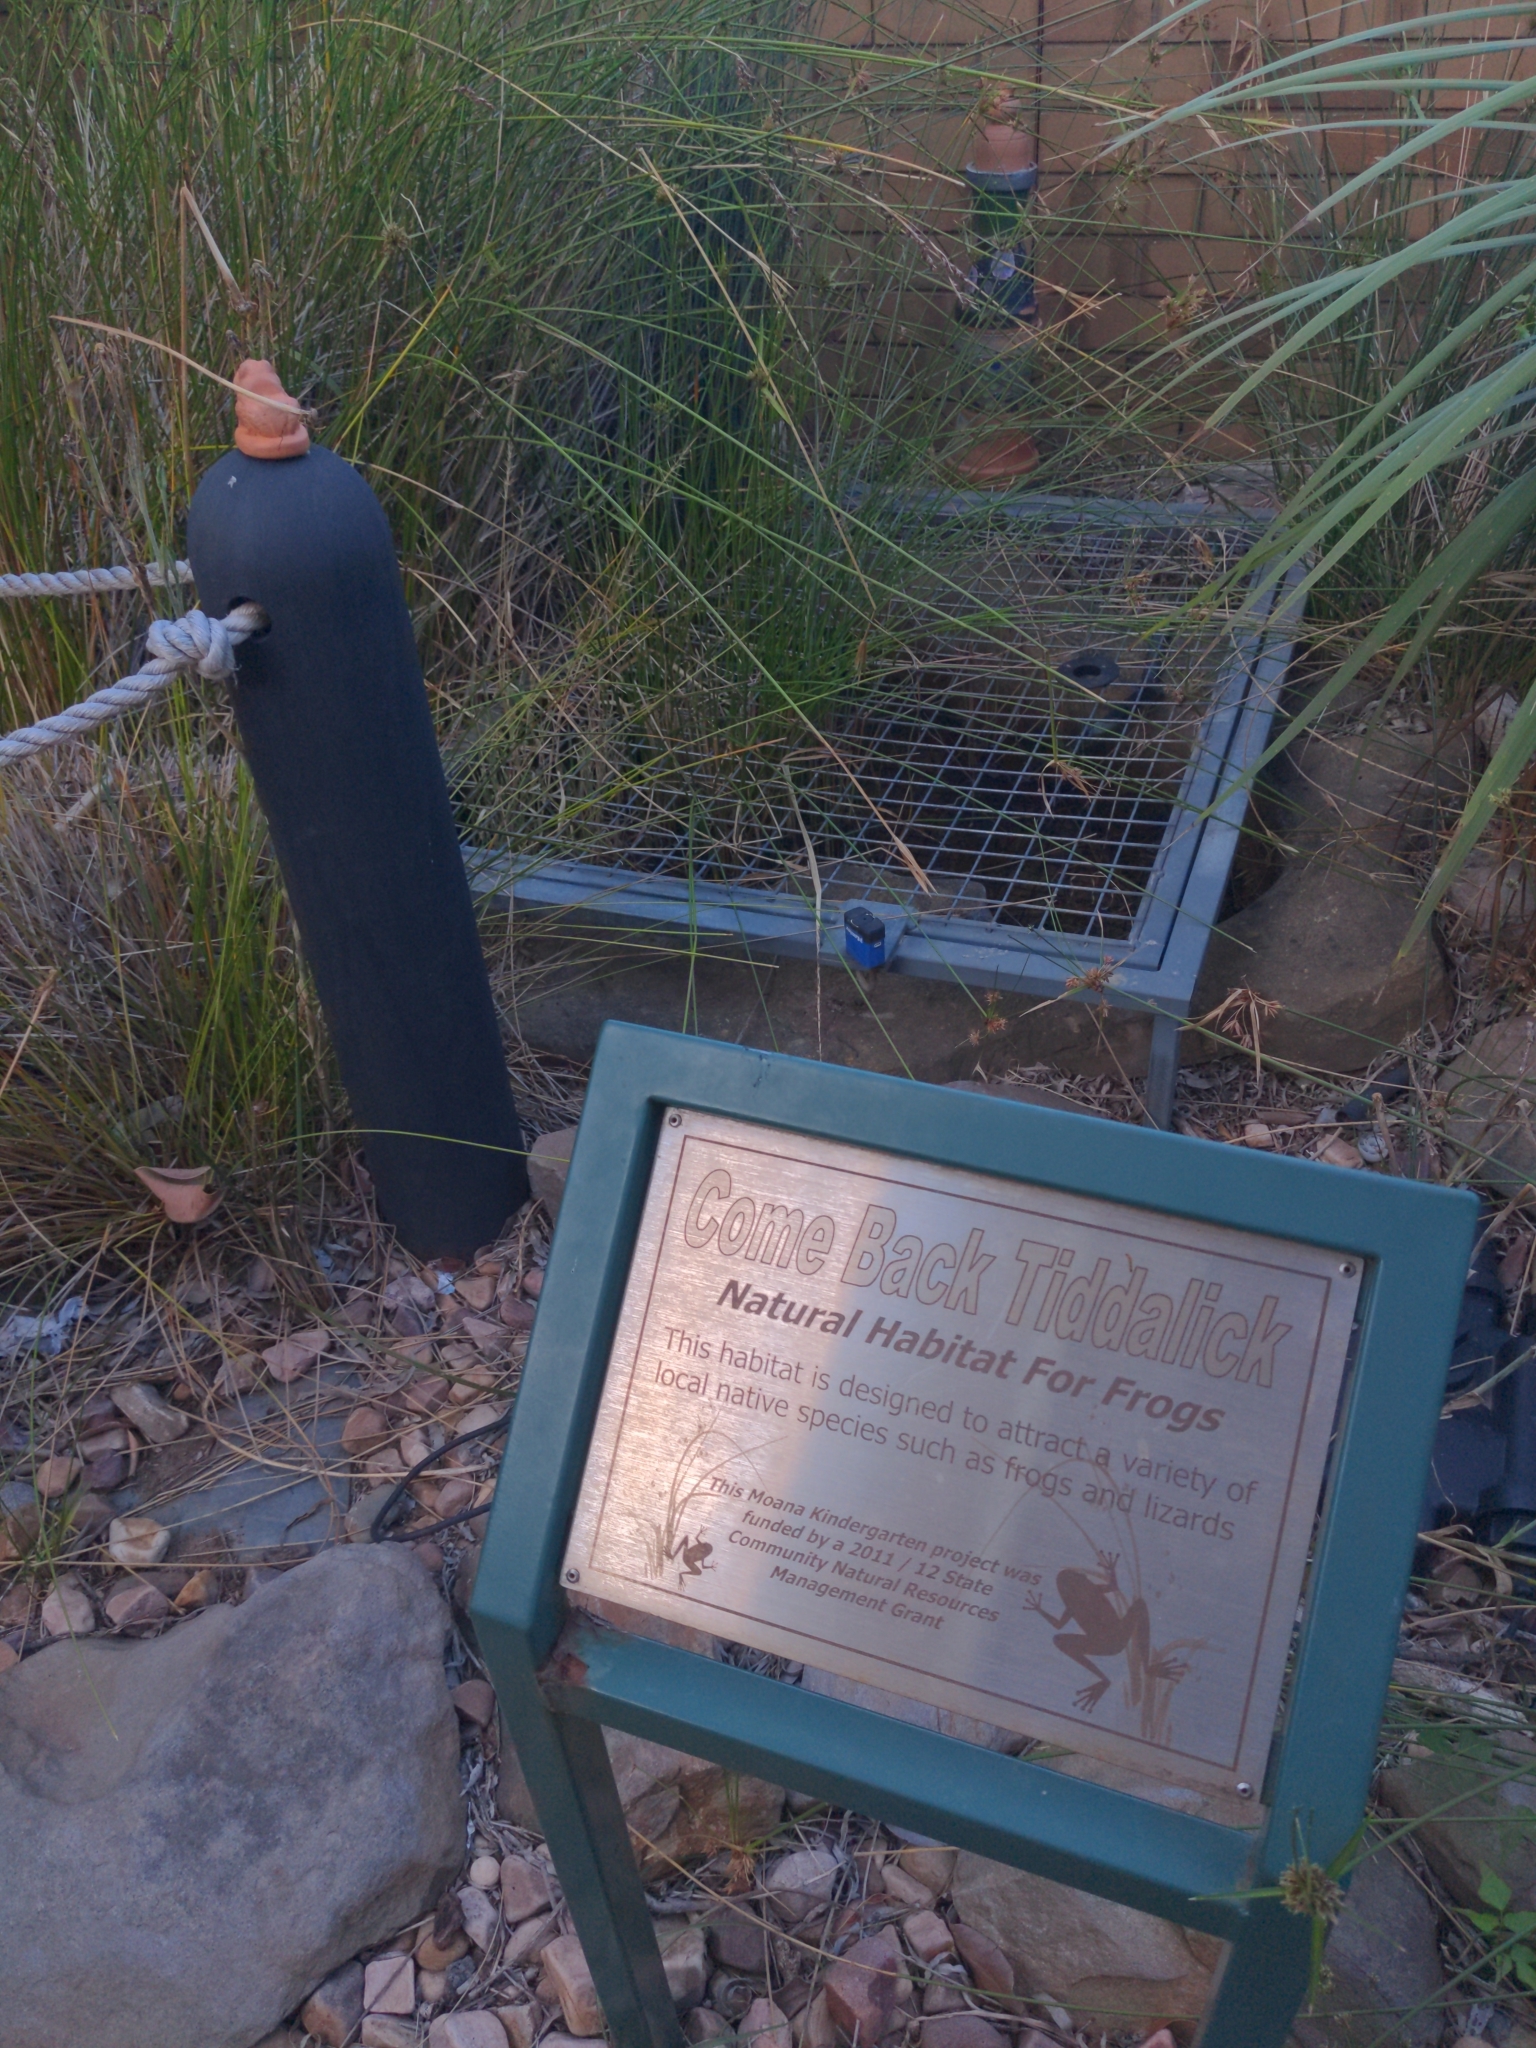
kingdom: Animalia
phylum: Chordata
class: Amphibia
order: Anura
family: Limnodynastidae
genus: Limnodynastes
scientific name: Limnodynastes tasmaniensis
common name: Spotted marsh frog
